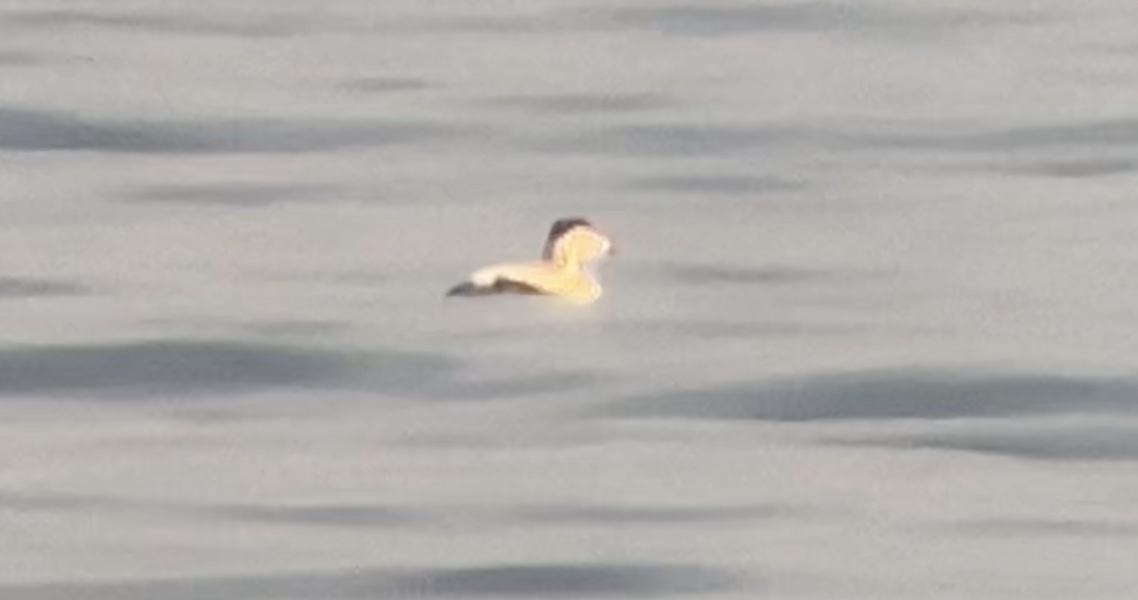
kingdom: Animalia
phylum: Chordata
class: Aves
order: Anseriformes
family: Anatidae
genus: Somateria
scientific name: Somateria mollissima
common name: Common eider
